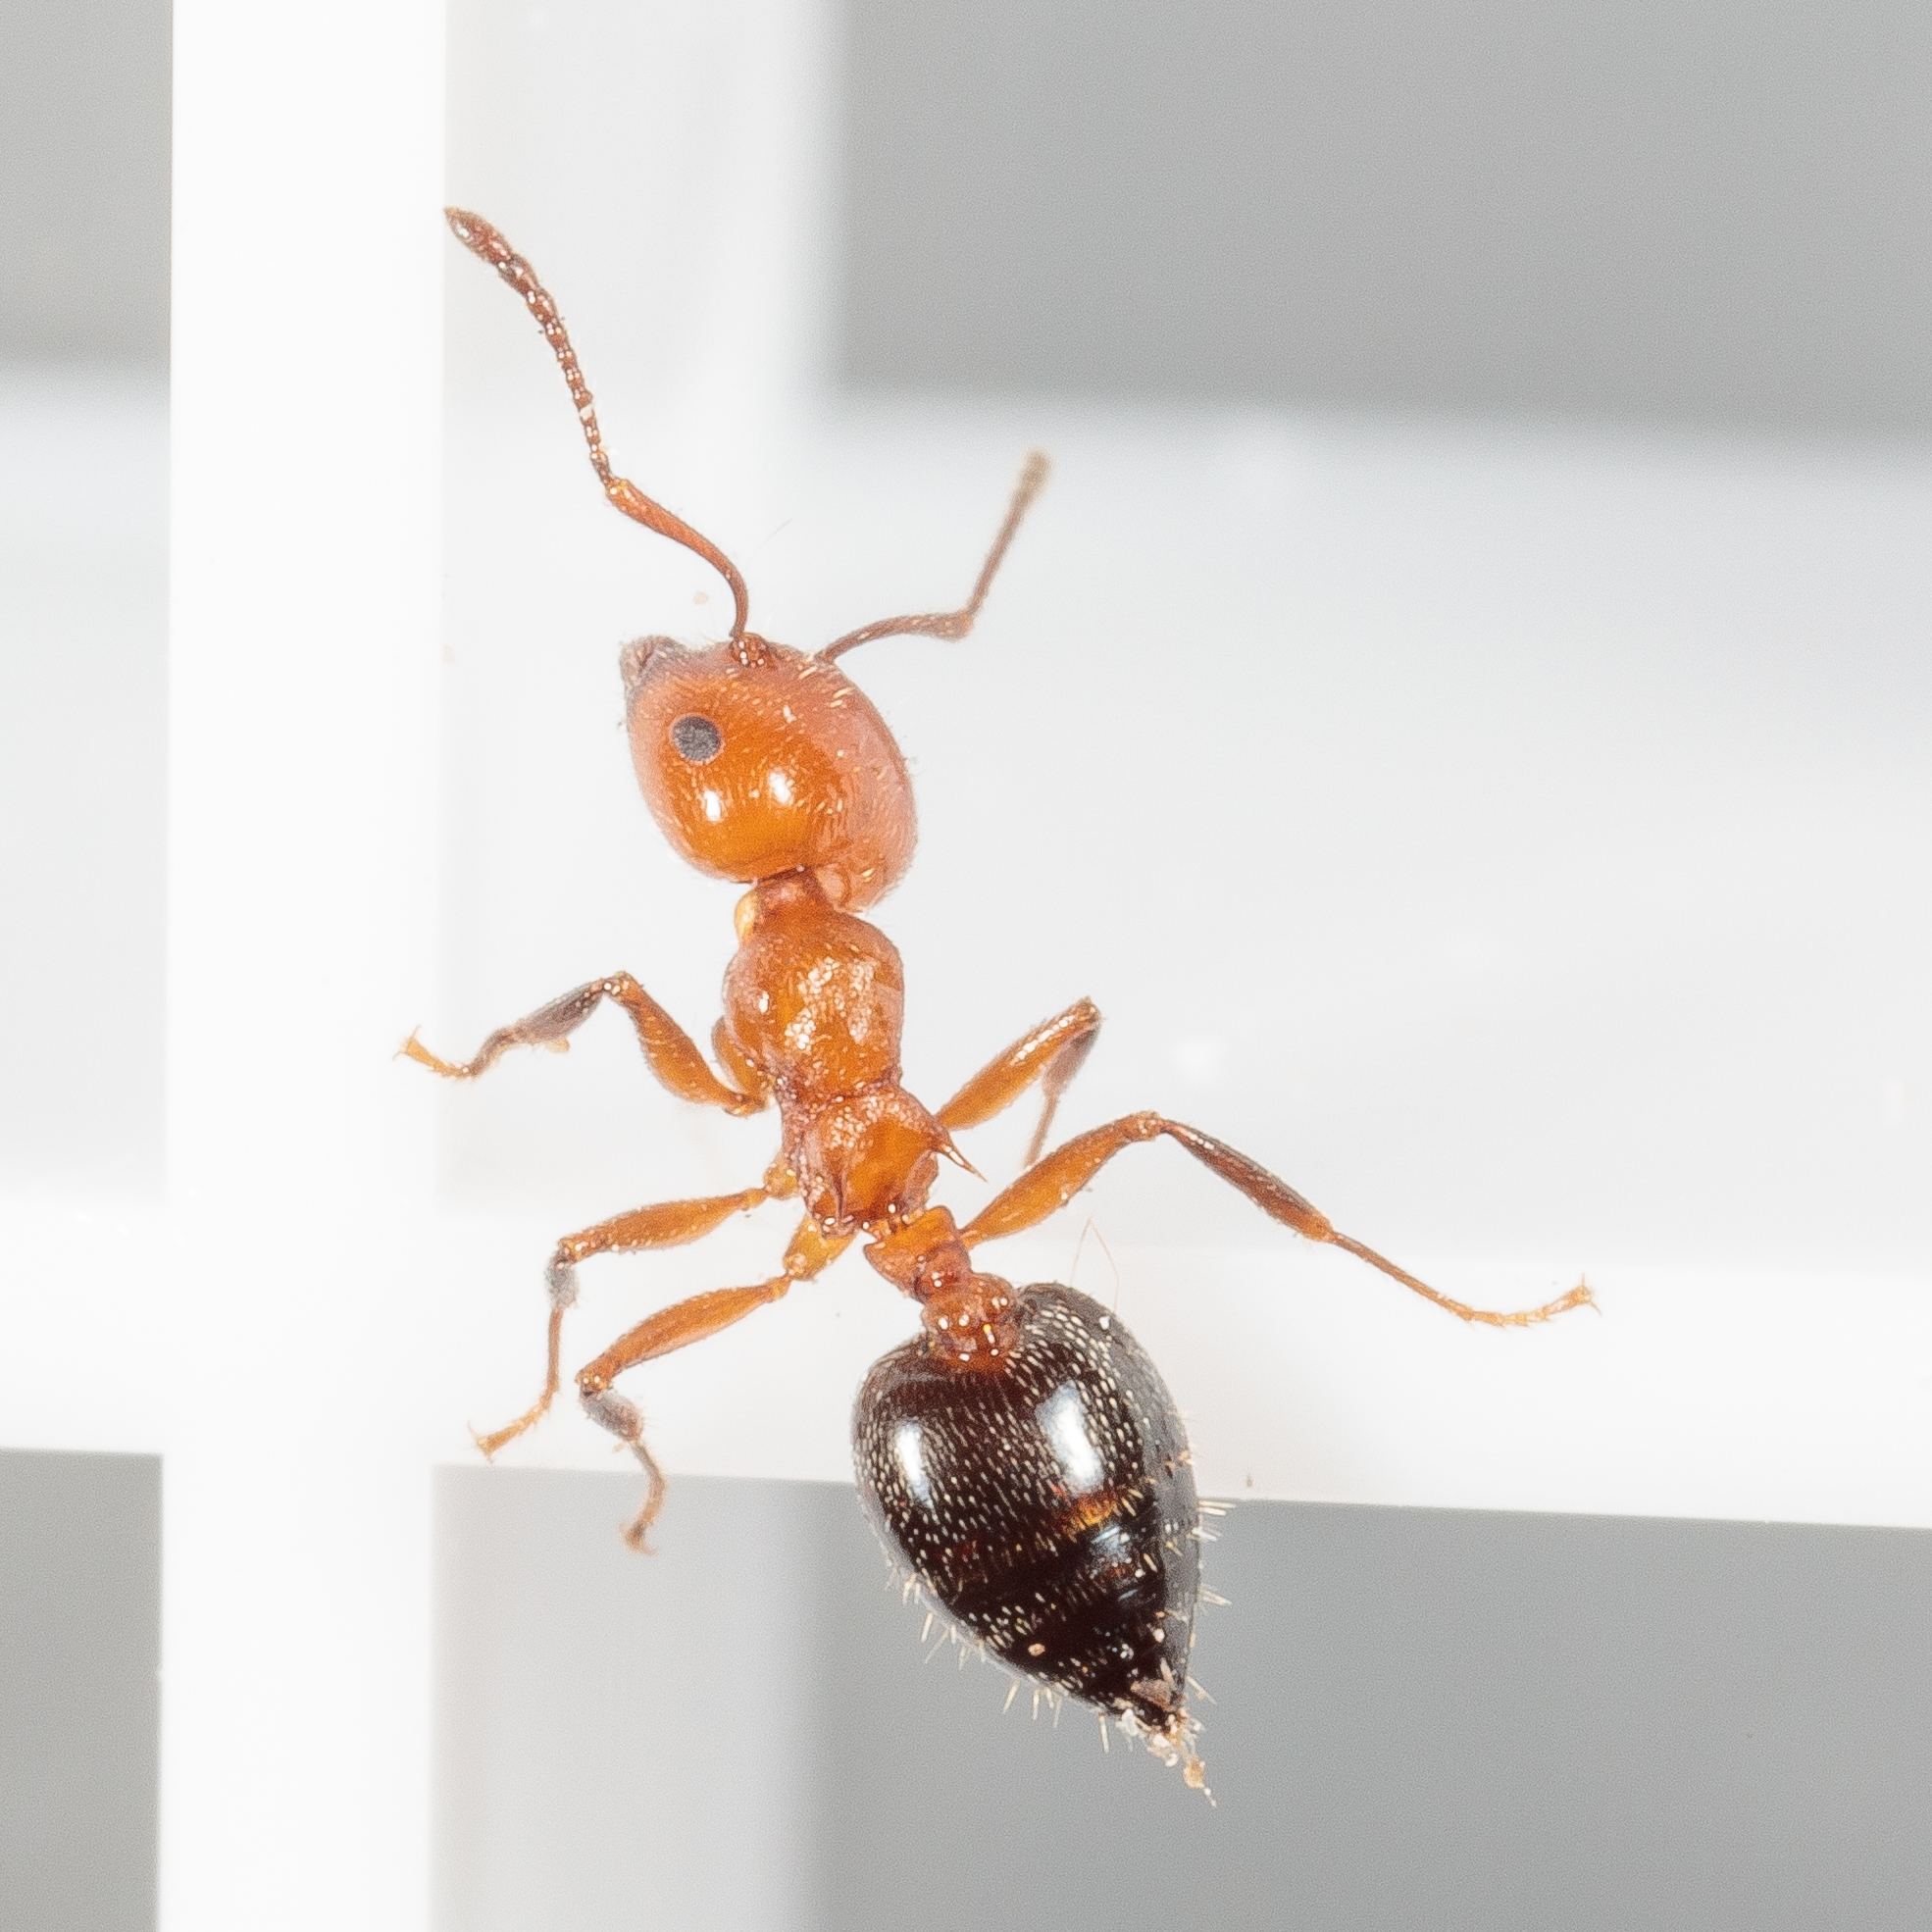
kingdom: Animalia
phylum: Arthropoda
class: Insecta
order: Hymenoptera
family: Formicidae
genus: Crematogaster
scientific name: Crematogaster laeviuscula
